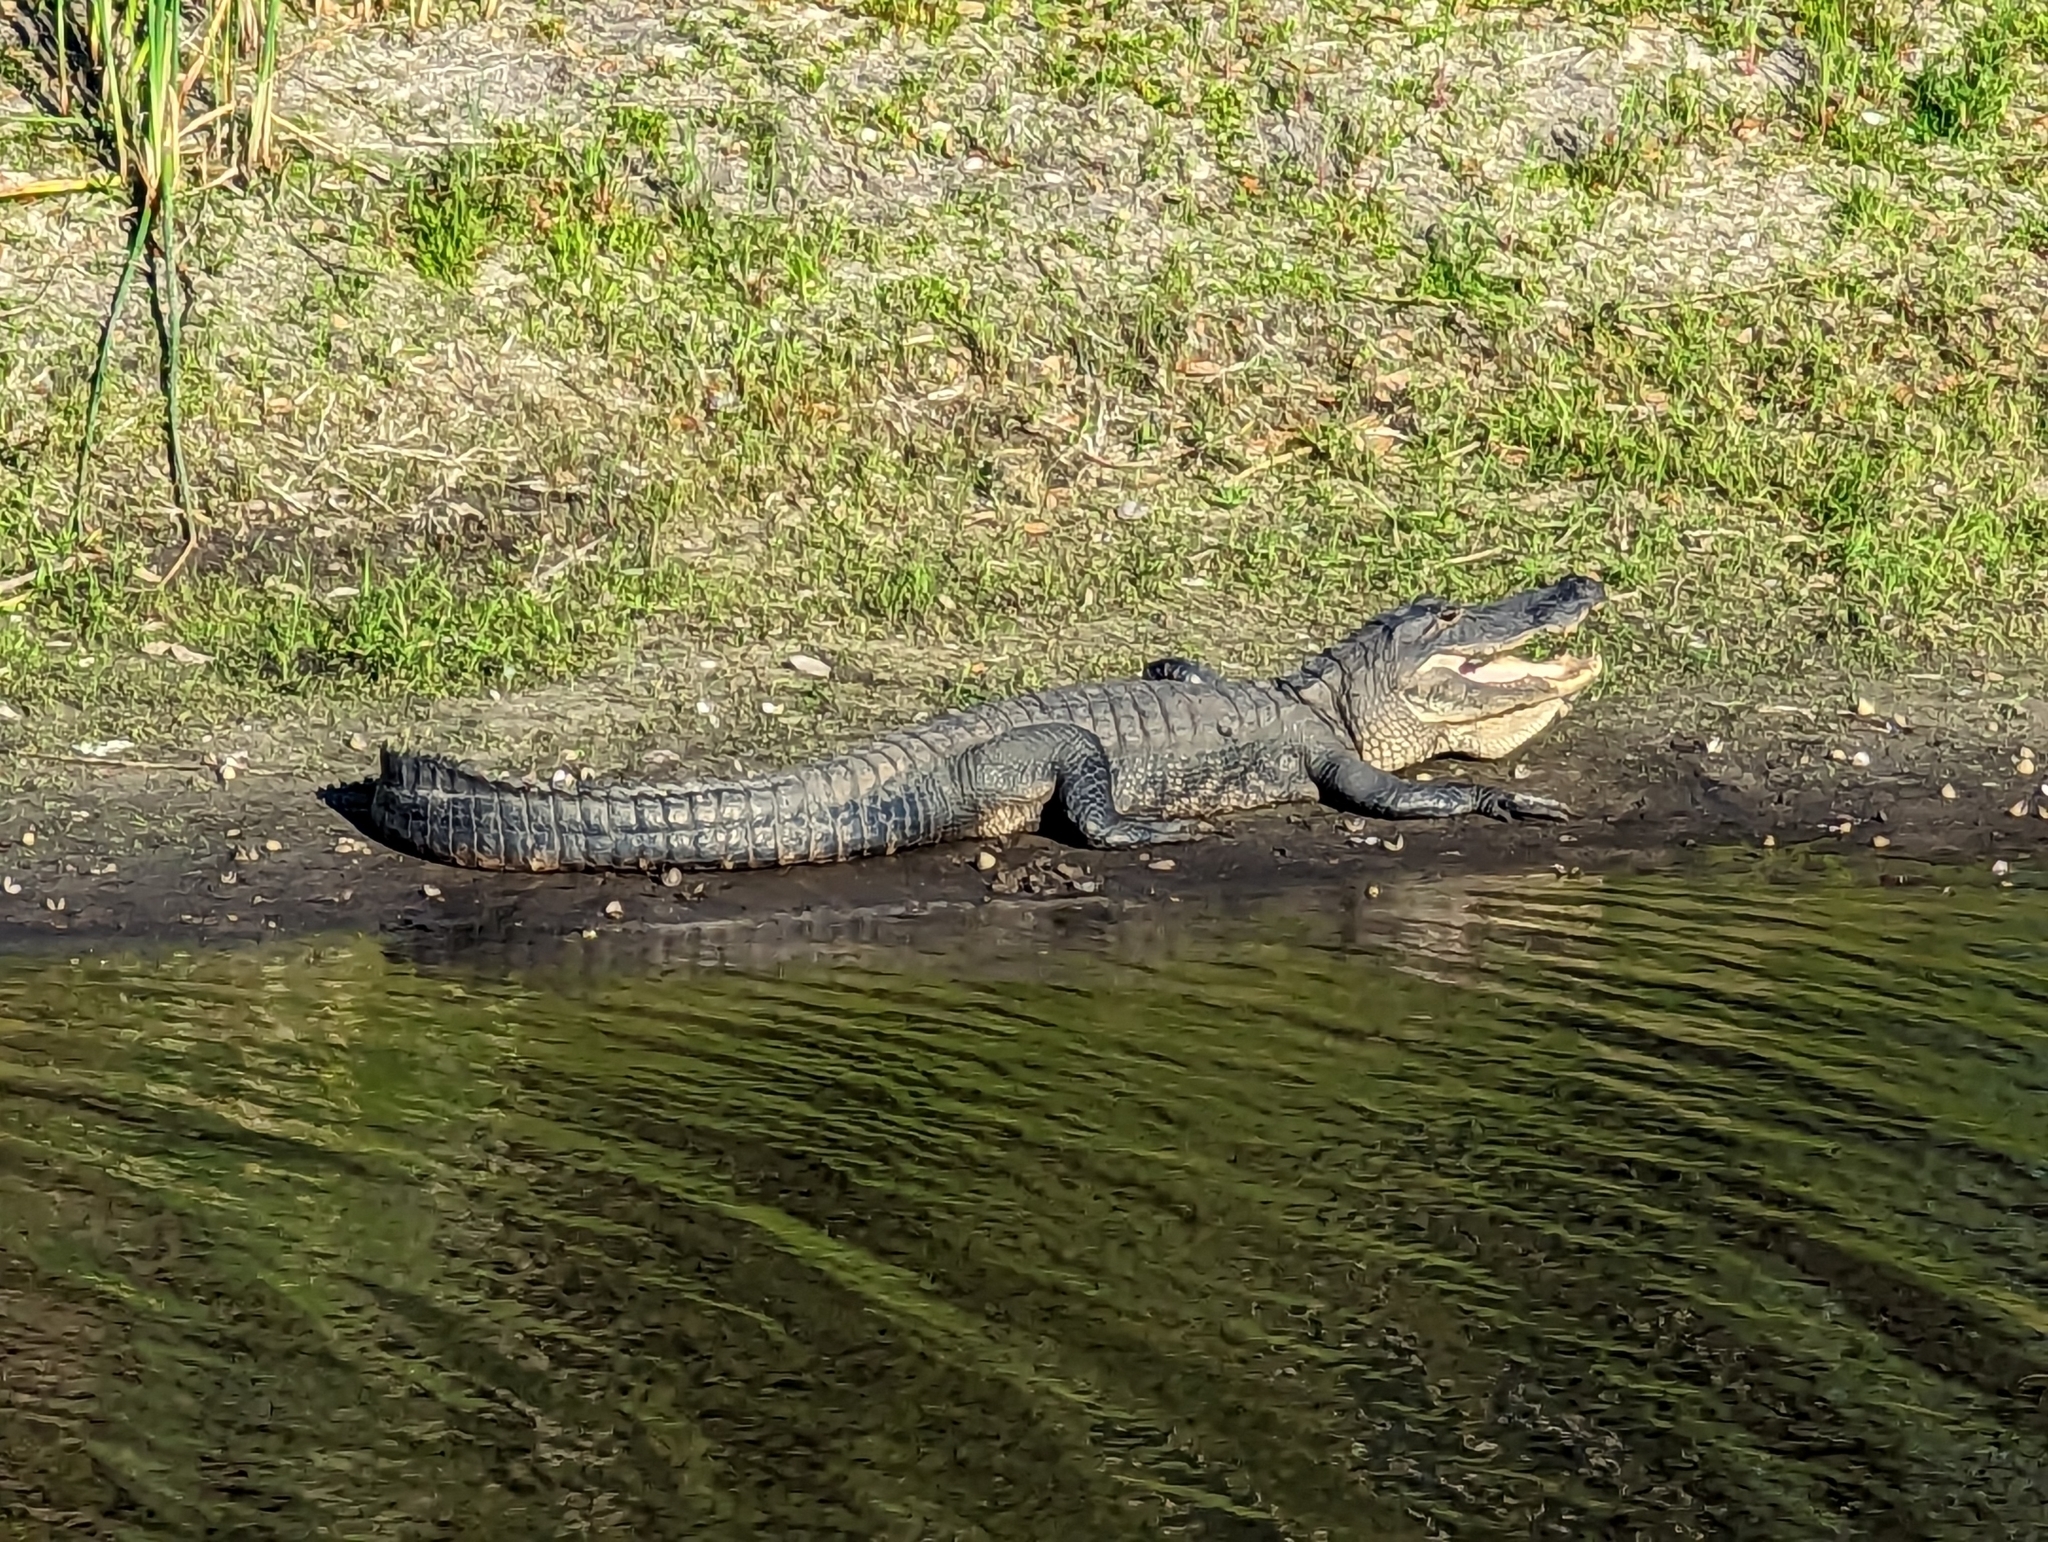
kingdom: Animalia
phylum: Chordata
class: Crocodylia
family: Alligatoridae
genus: Alligator
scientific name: Alligator mississippiensis
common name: American alligator
